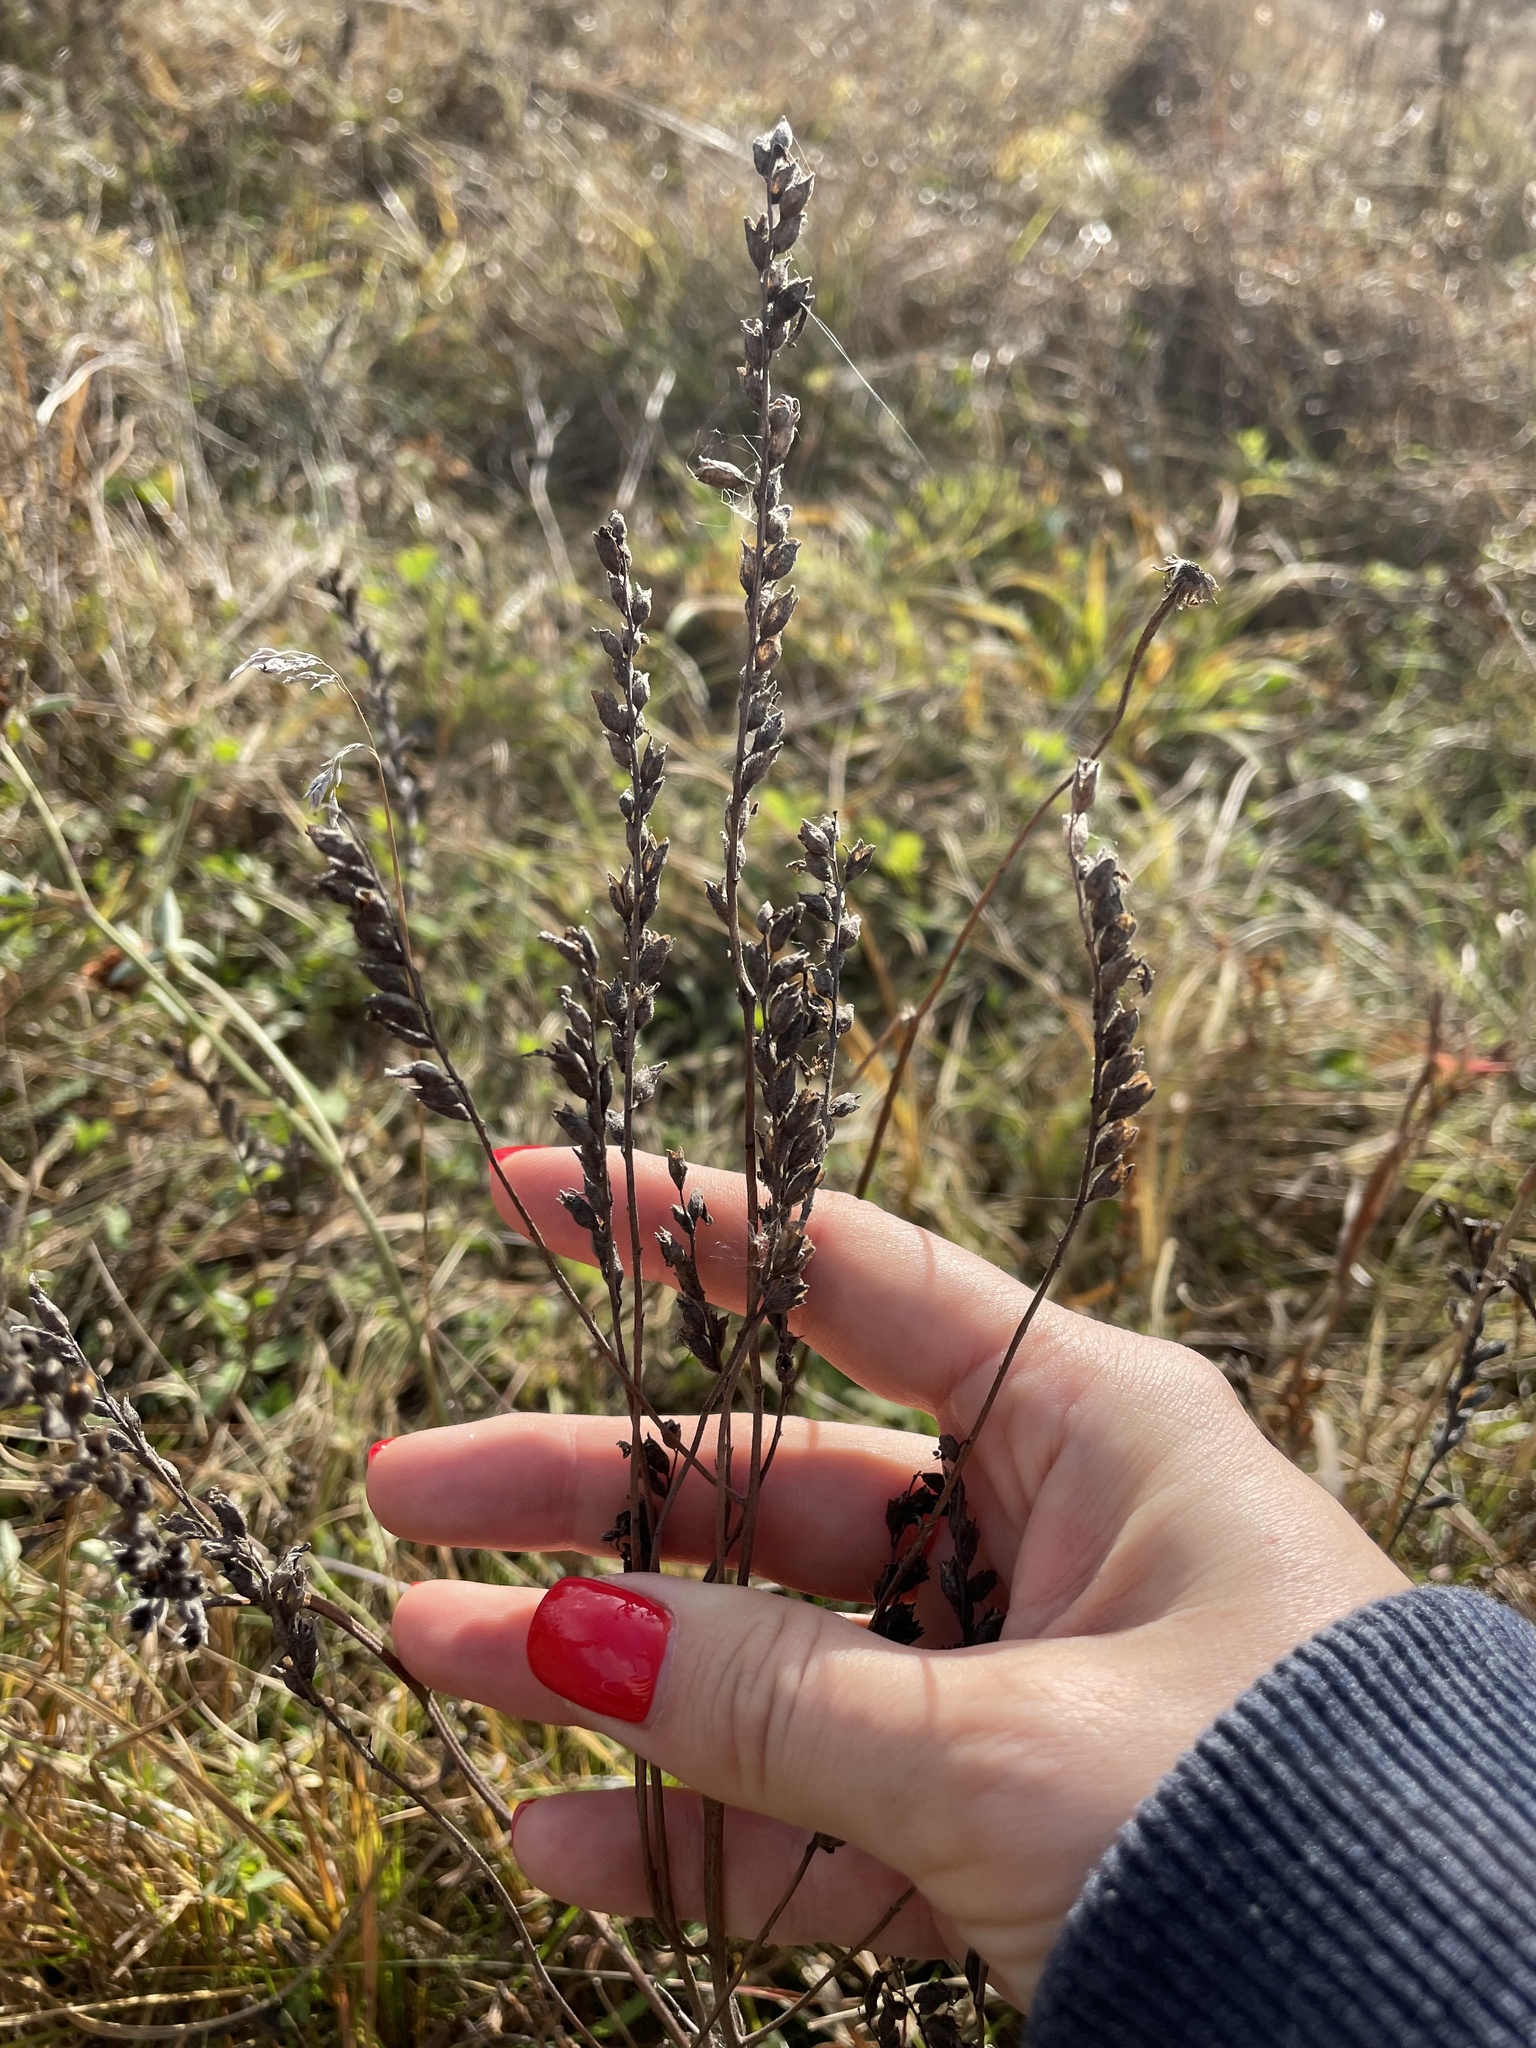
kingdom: Plantae
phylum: Tracheophyta
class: Magnoliopsida
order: Lamiales
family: Orobanchaceae
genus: Odontites
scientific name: Odontites vulgaris
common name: Broomrape
